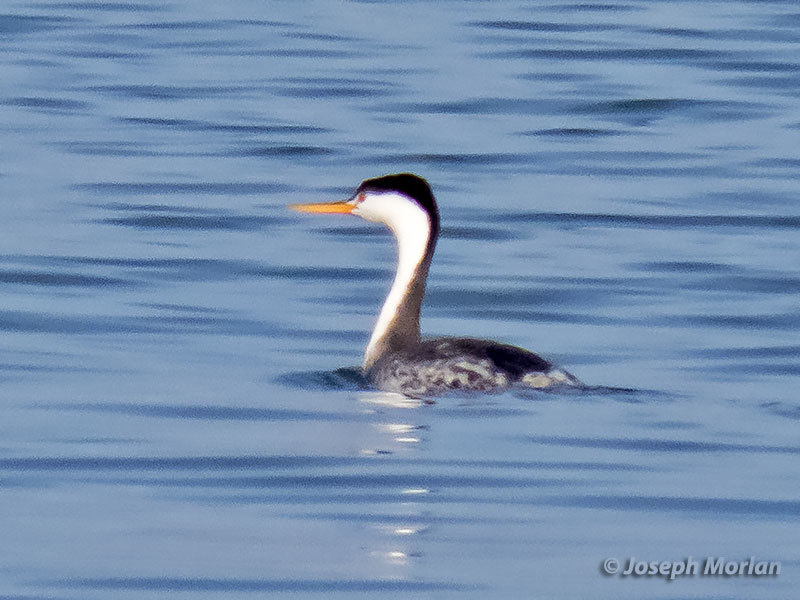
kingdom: Animalia
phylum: Chordata
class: Aves
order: Podicipediformes
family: Podicipedidae
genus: Aechmophorus
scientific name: Aechmophorus clarkii
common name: Clark's grebe
